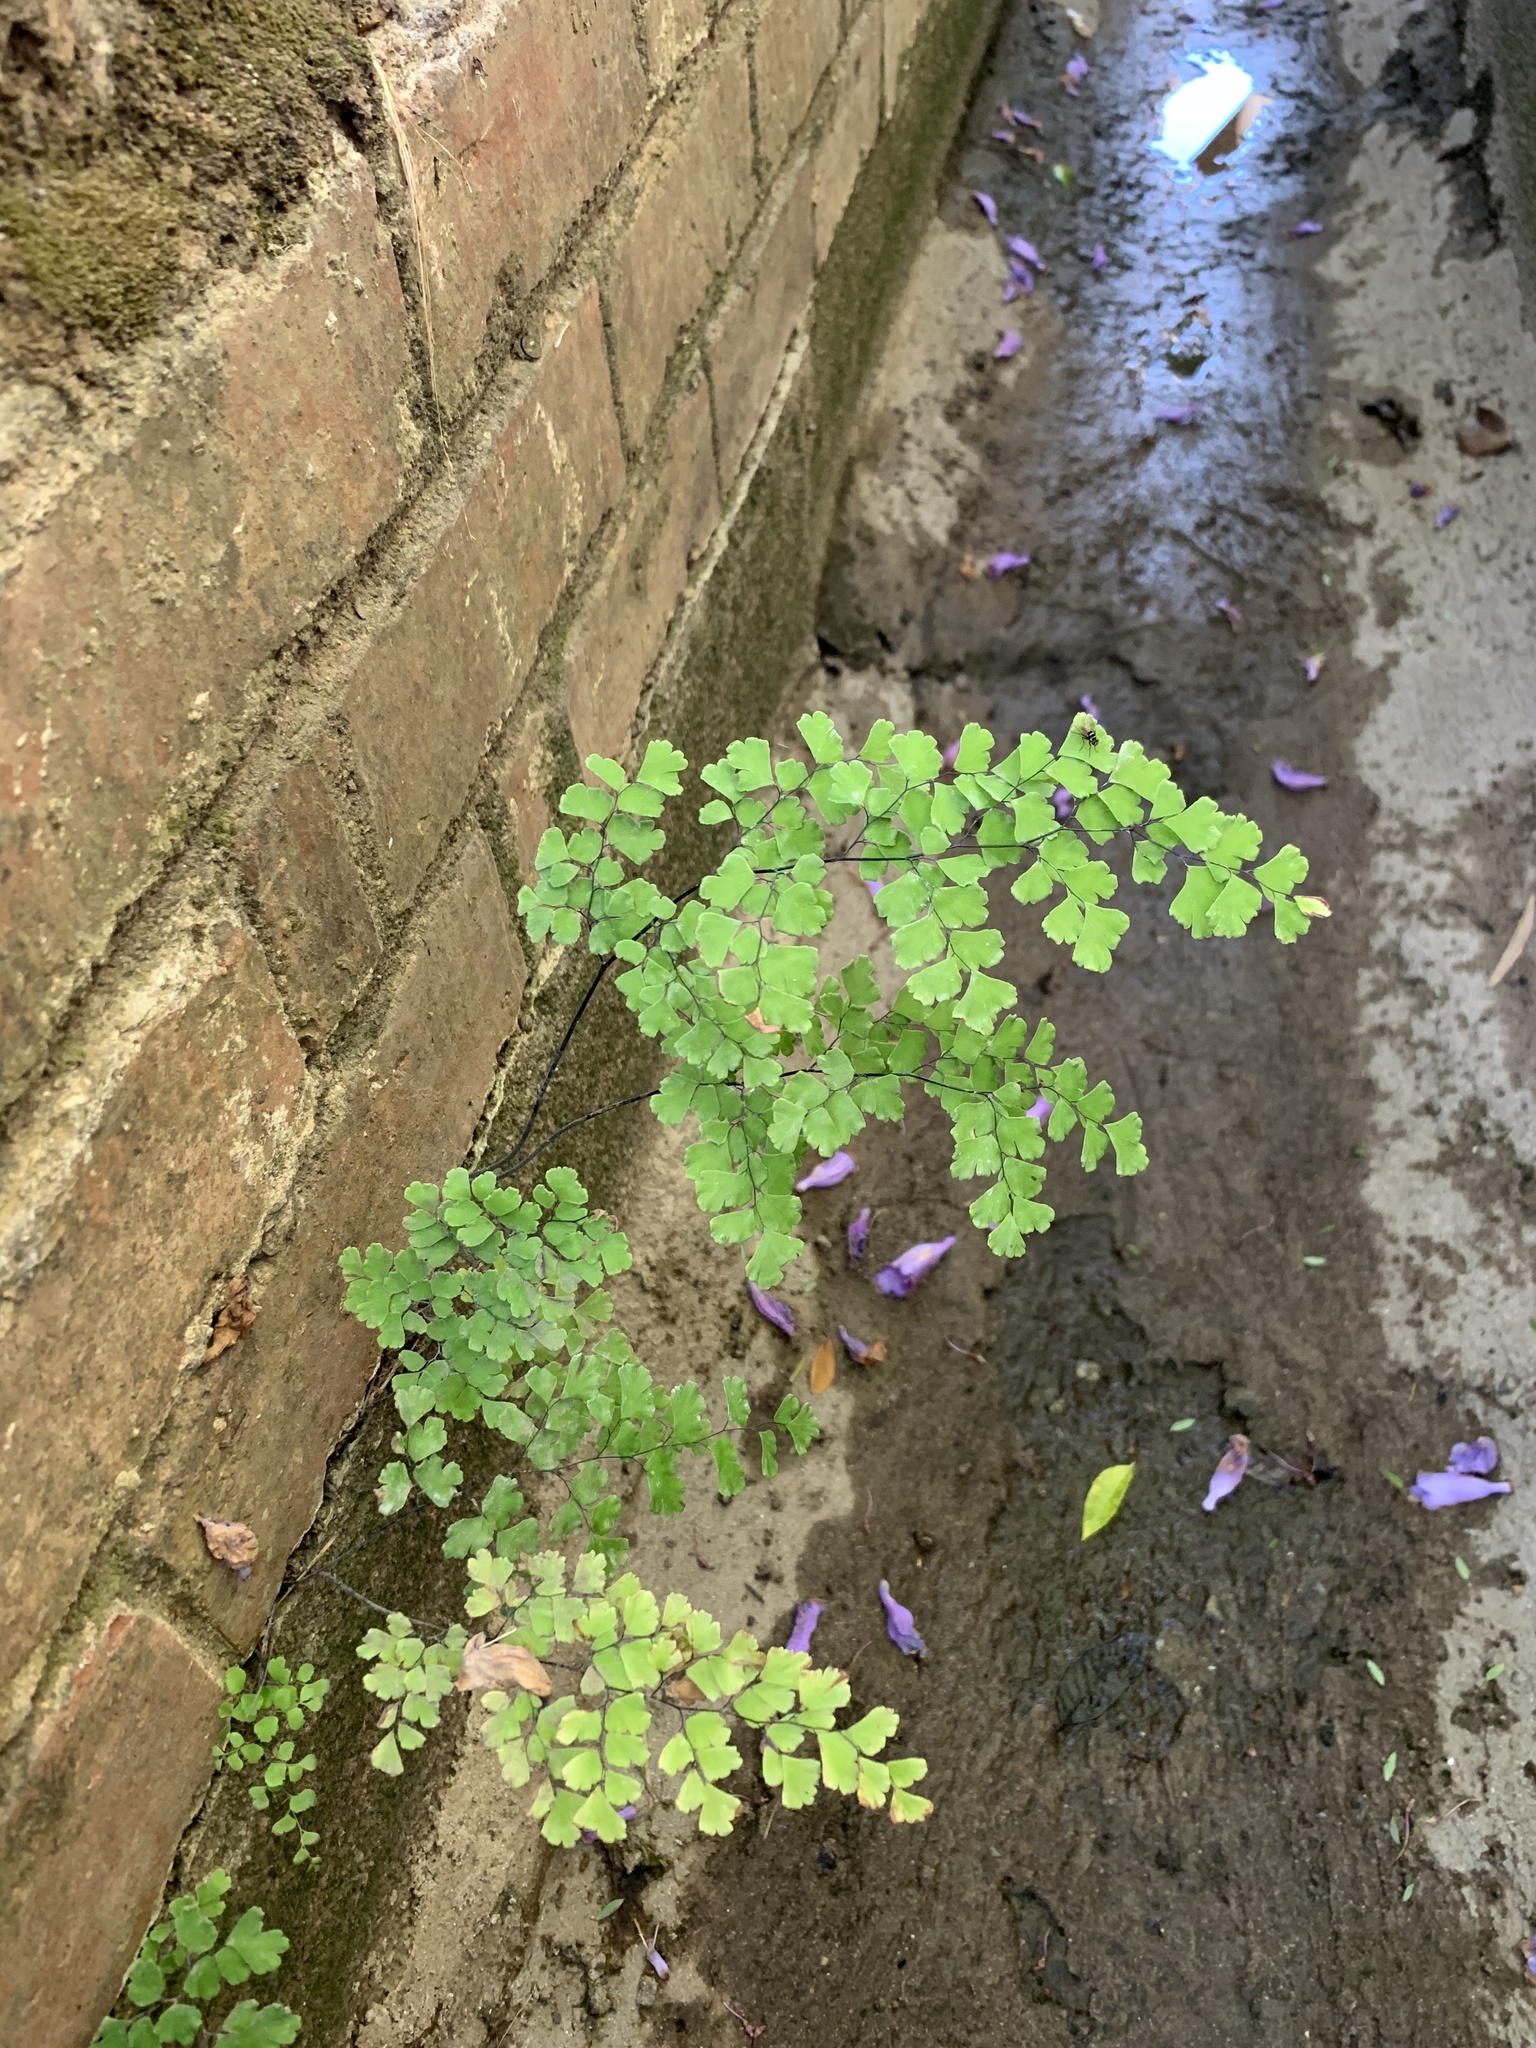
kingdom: Plantae
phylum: Tracheophyta
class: Polypodiopsida
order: Polypodiales
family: Pteridaceae
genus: Adiantum
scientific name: Adiantum capillus-veneris
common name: Maidenhair fern
